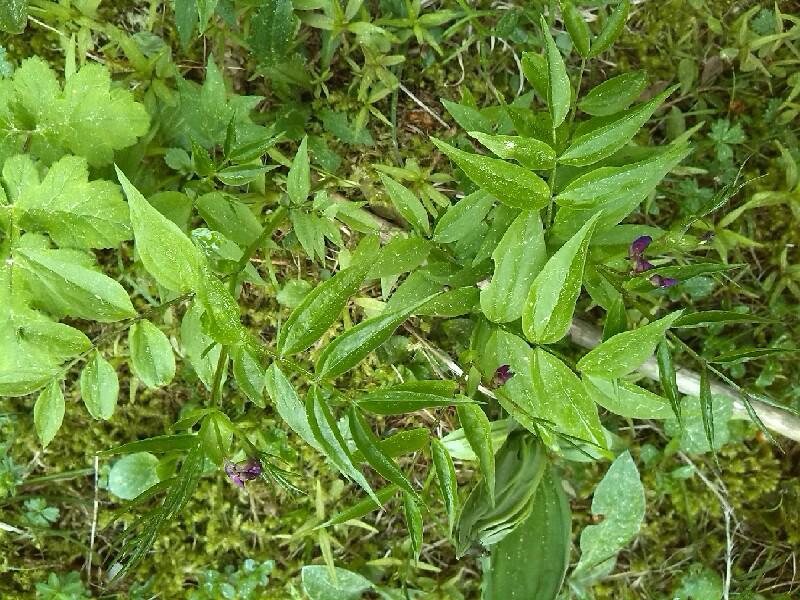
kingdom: Plantae
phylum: Tracheophyta
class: Magnoliopsida
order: Fabales
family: Fabaceae
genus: Lathyrus
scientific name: Lathyrus vernus
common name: Spring pea
